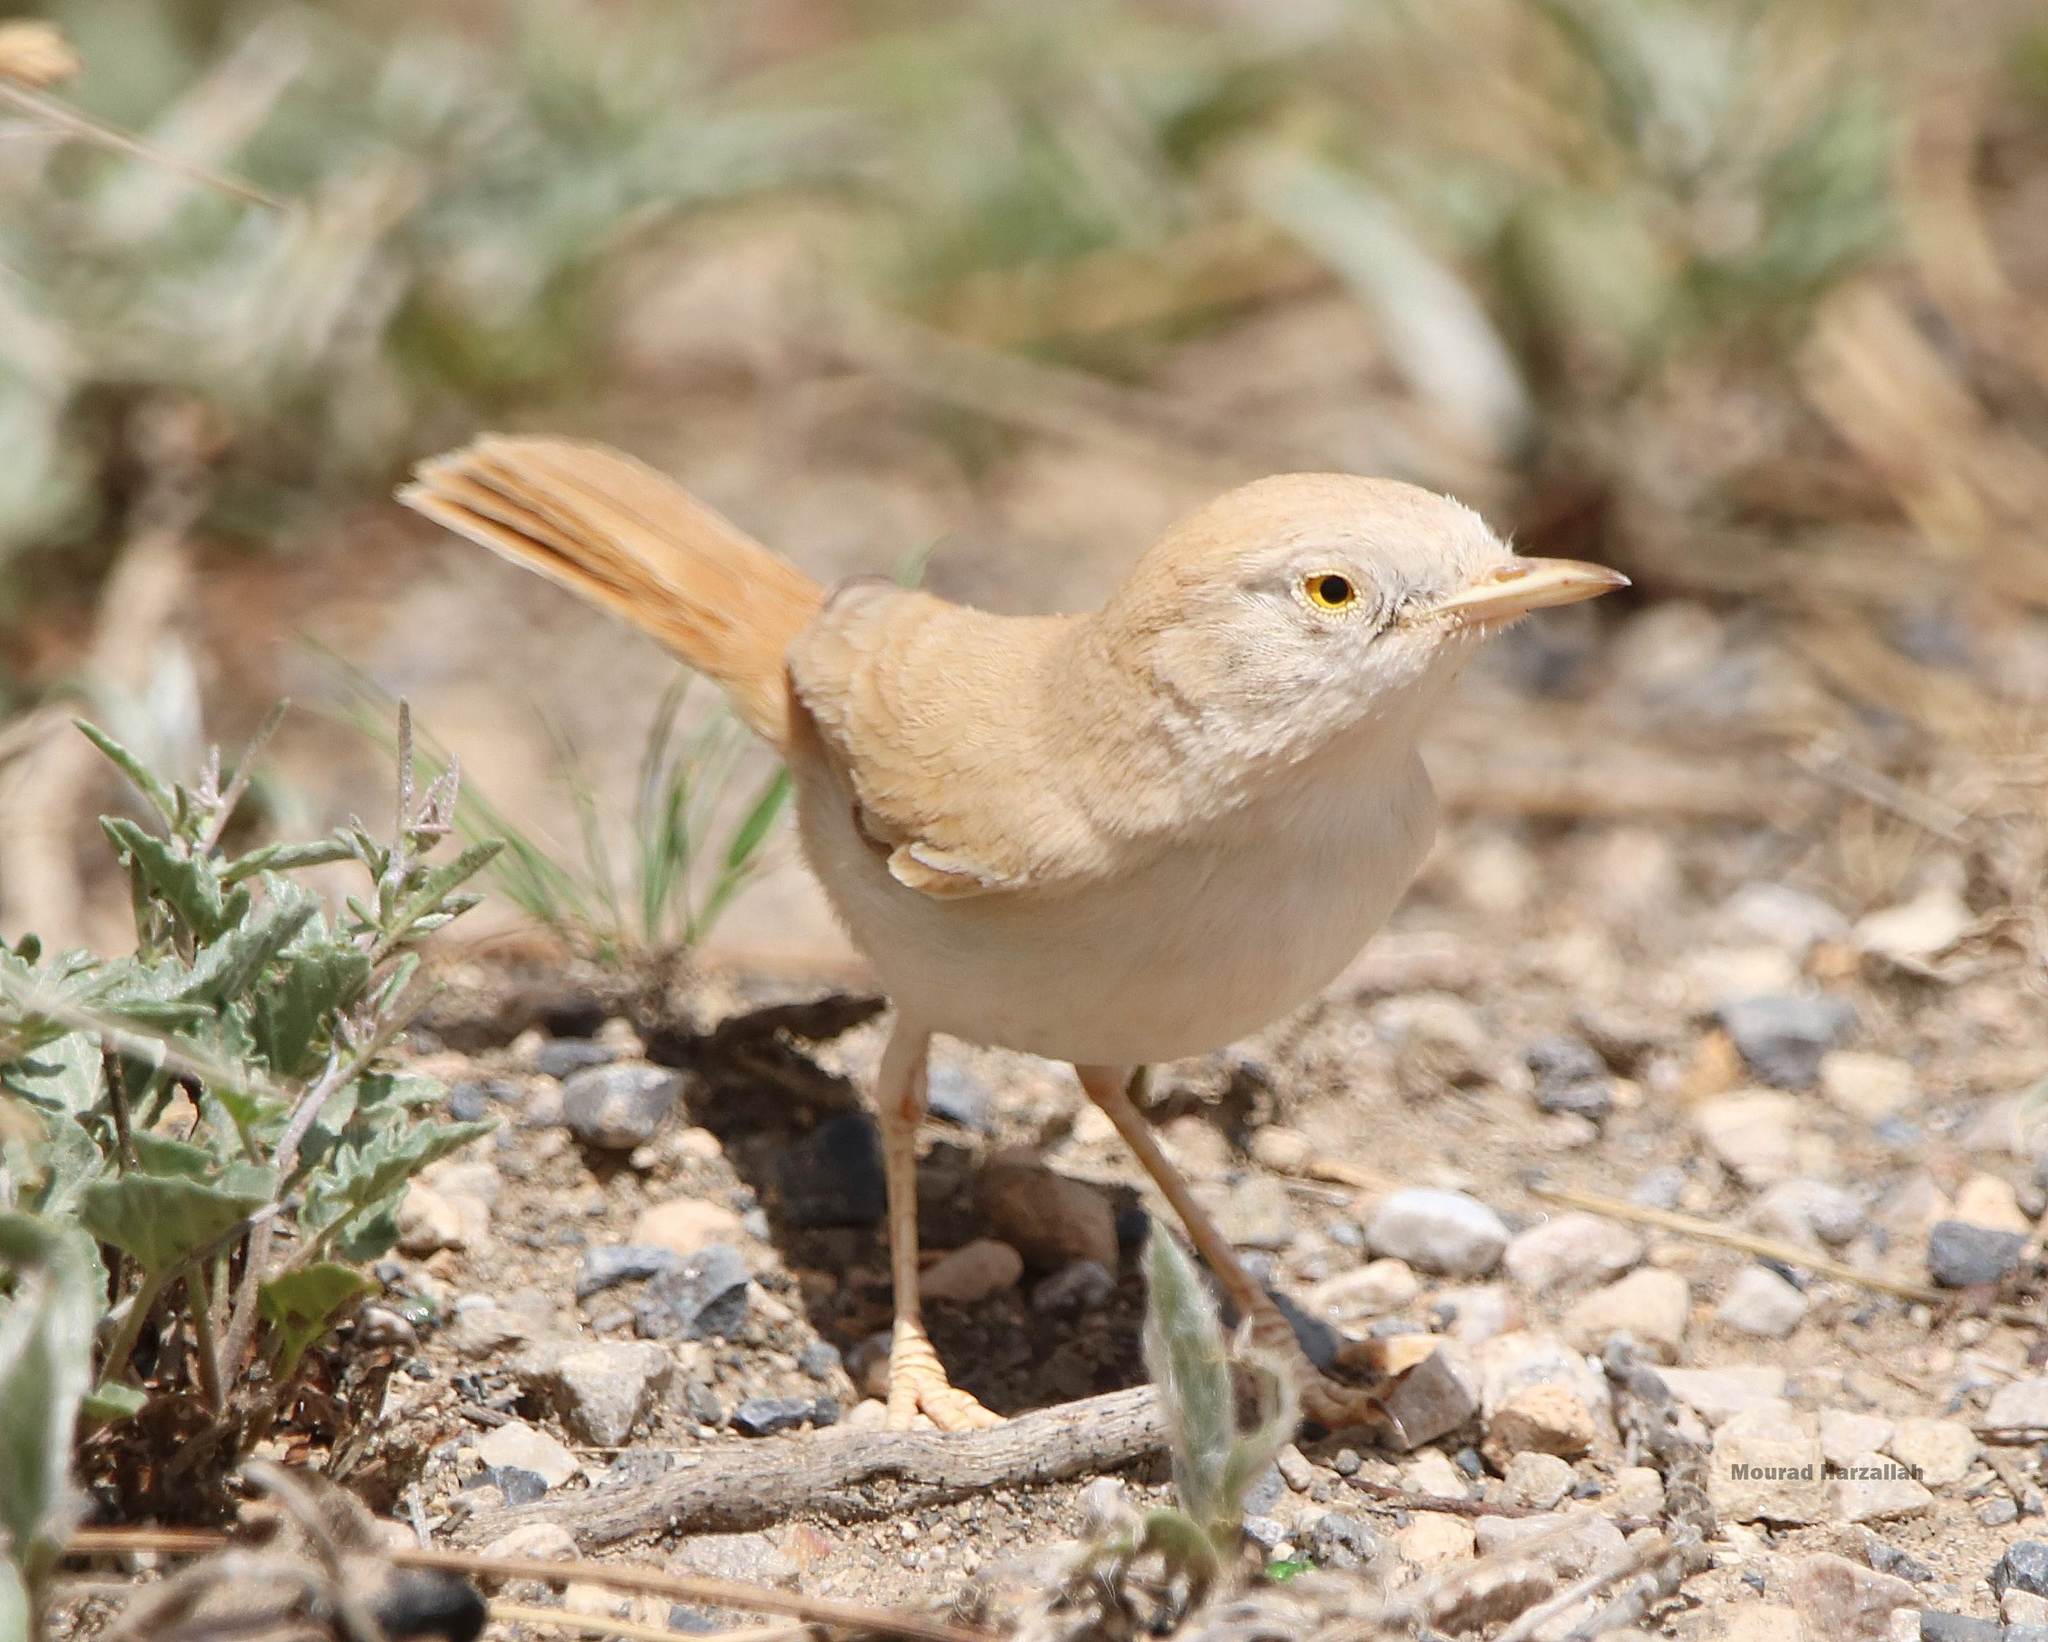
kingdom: Animalia
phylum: Chordata
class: Aves
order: Passeriformes
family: Sylviidae
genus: Sylvia
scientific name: Sylvia deserti
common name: African desert warbler
